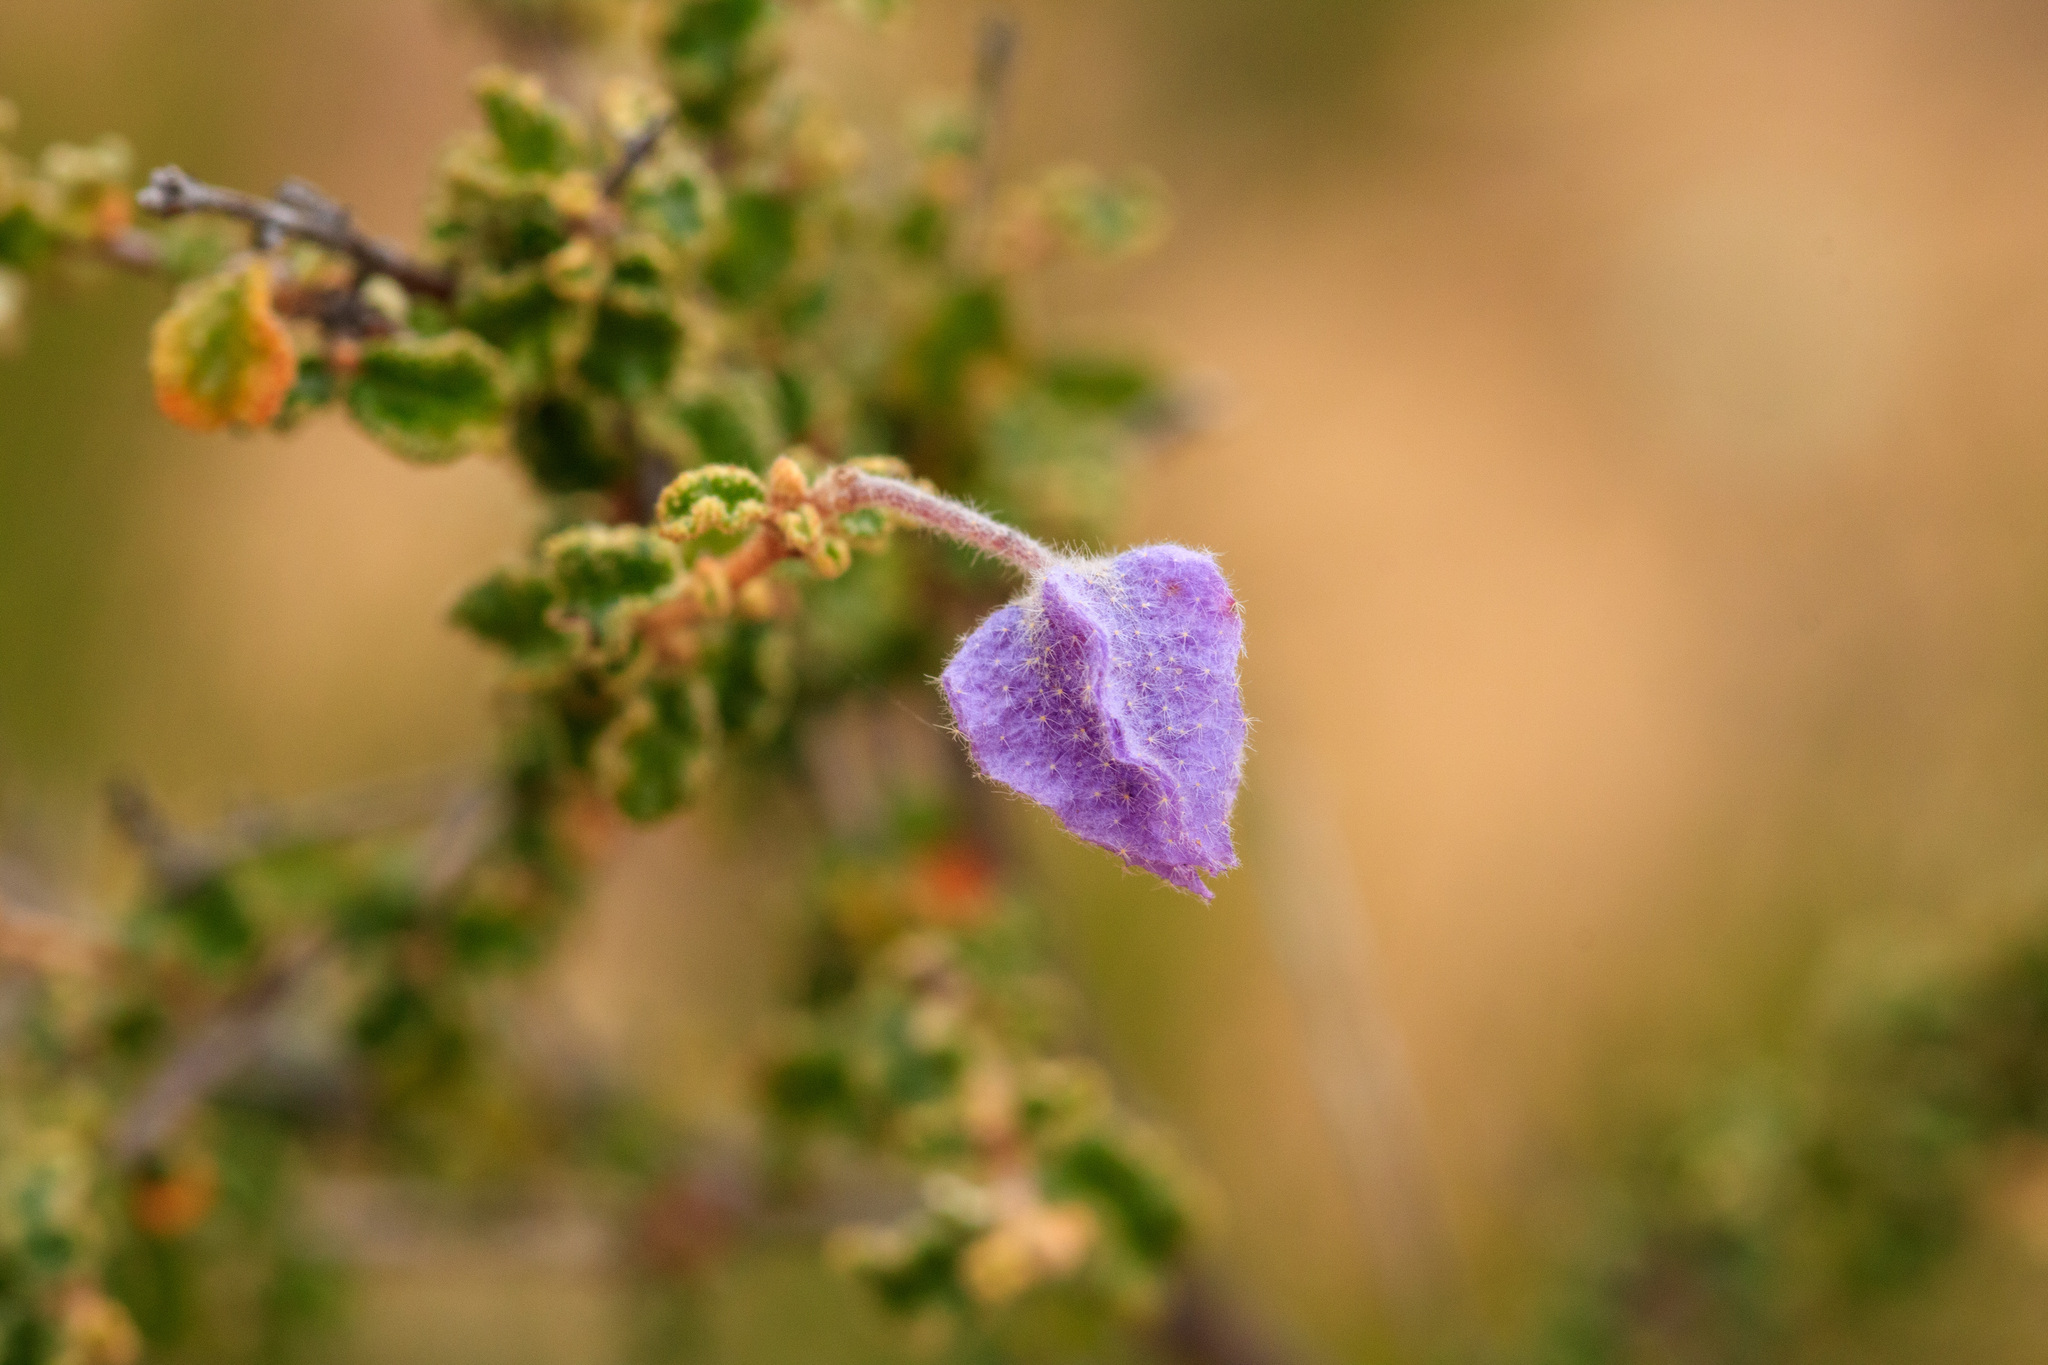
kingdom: Plantae
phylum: Tracheophyta
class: Magnoliopsida
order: Malvales
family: Malvaceae
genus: Seringia
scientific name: Seringia hermannifolia
